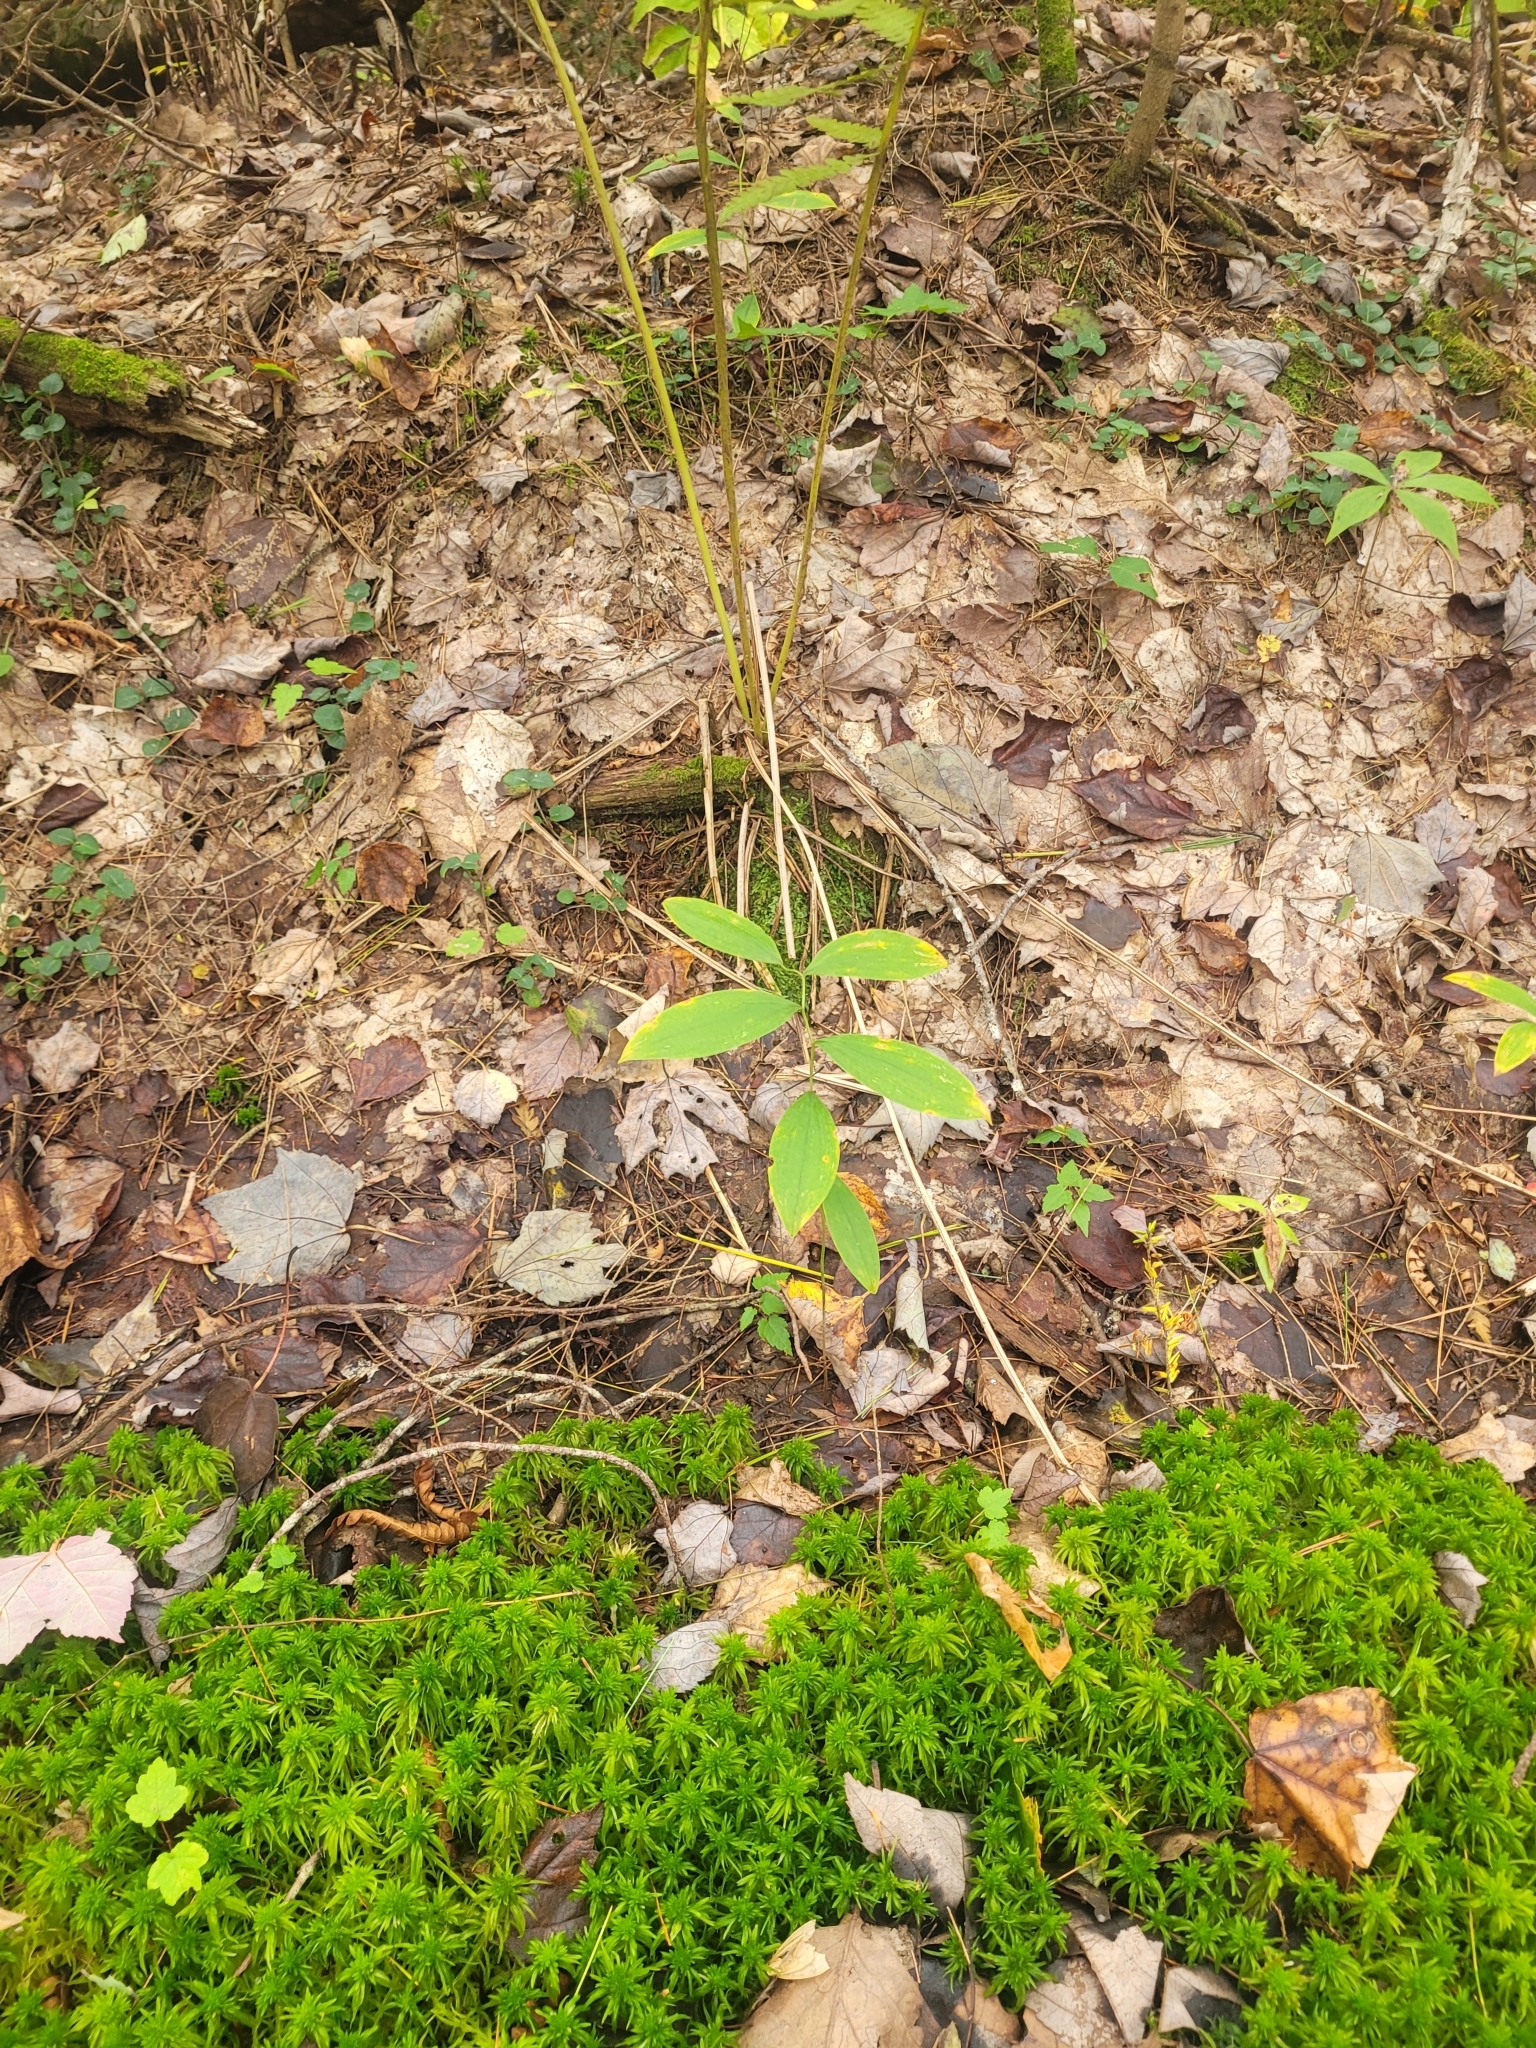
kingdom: Plantae
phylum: Tracheophyta
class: Liliopsida
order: Liliales
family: Colchicaceae
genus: Uvularia
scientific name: Uvularia sessilifolia
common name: Straw-lily
